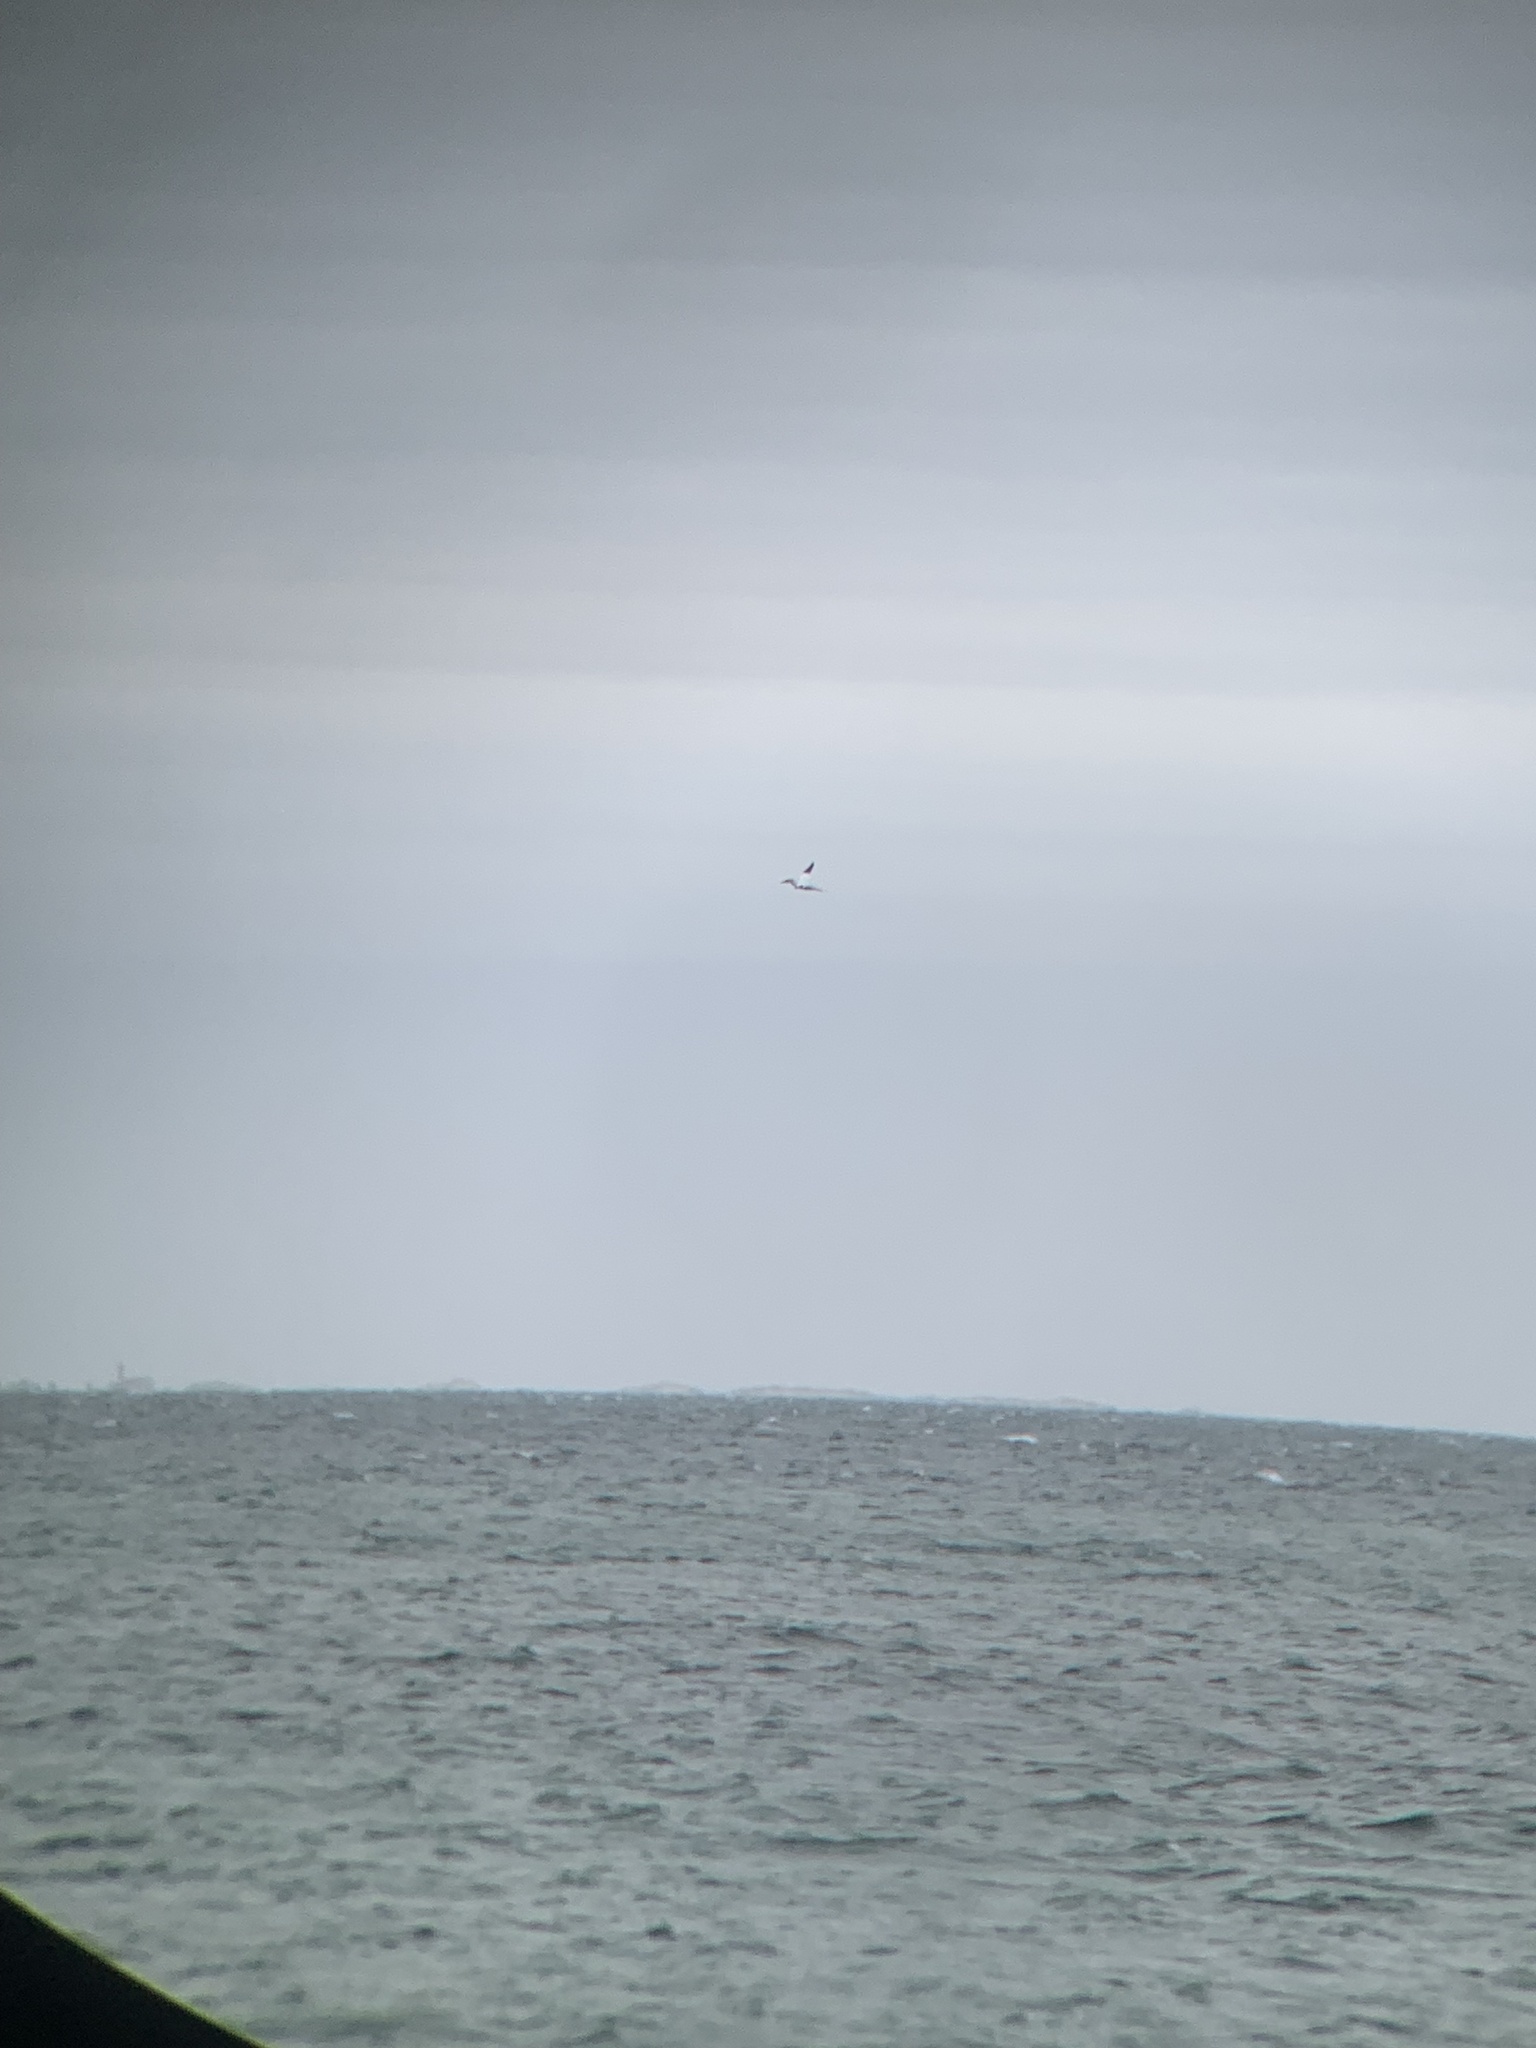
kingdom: Animalia
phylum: Chordata
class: Aves
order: Suliformes
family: Sulidae
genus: Morus
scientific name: Morus bassanus
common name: Northern gannet
